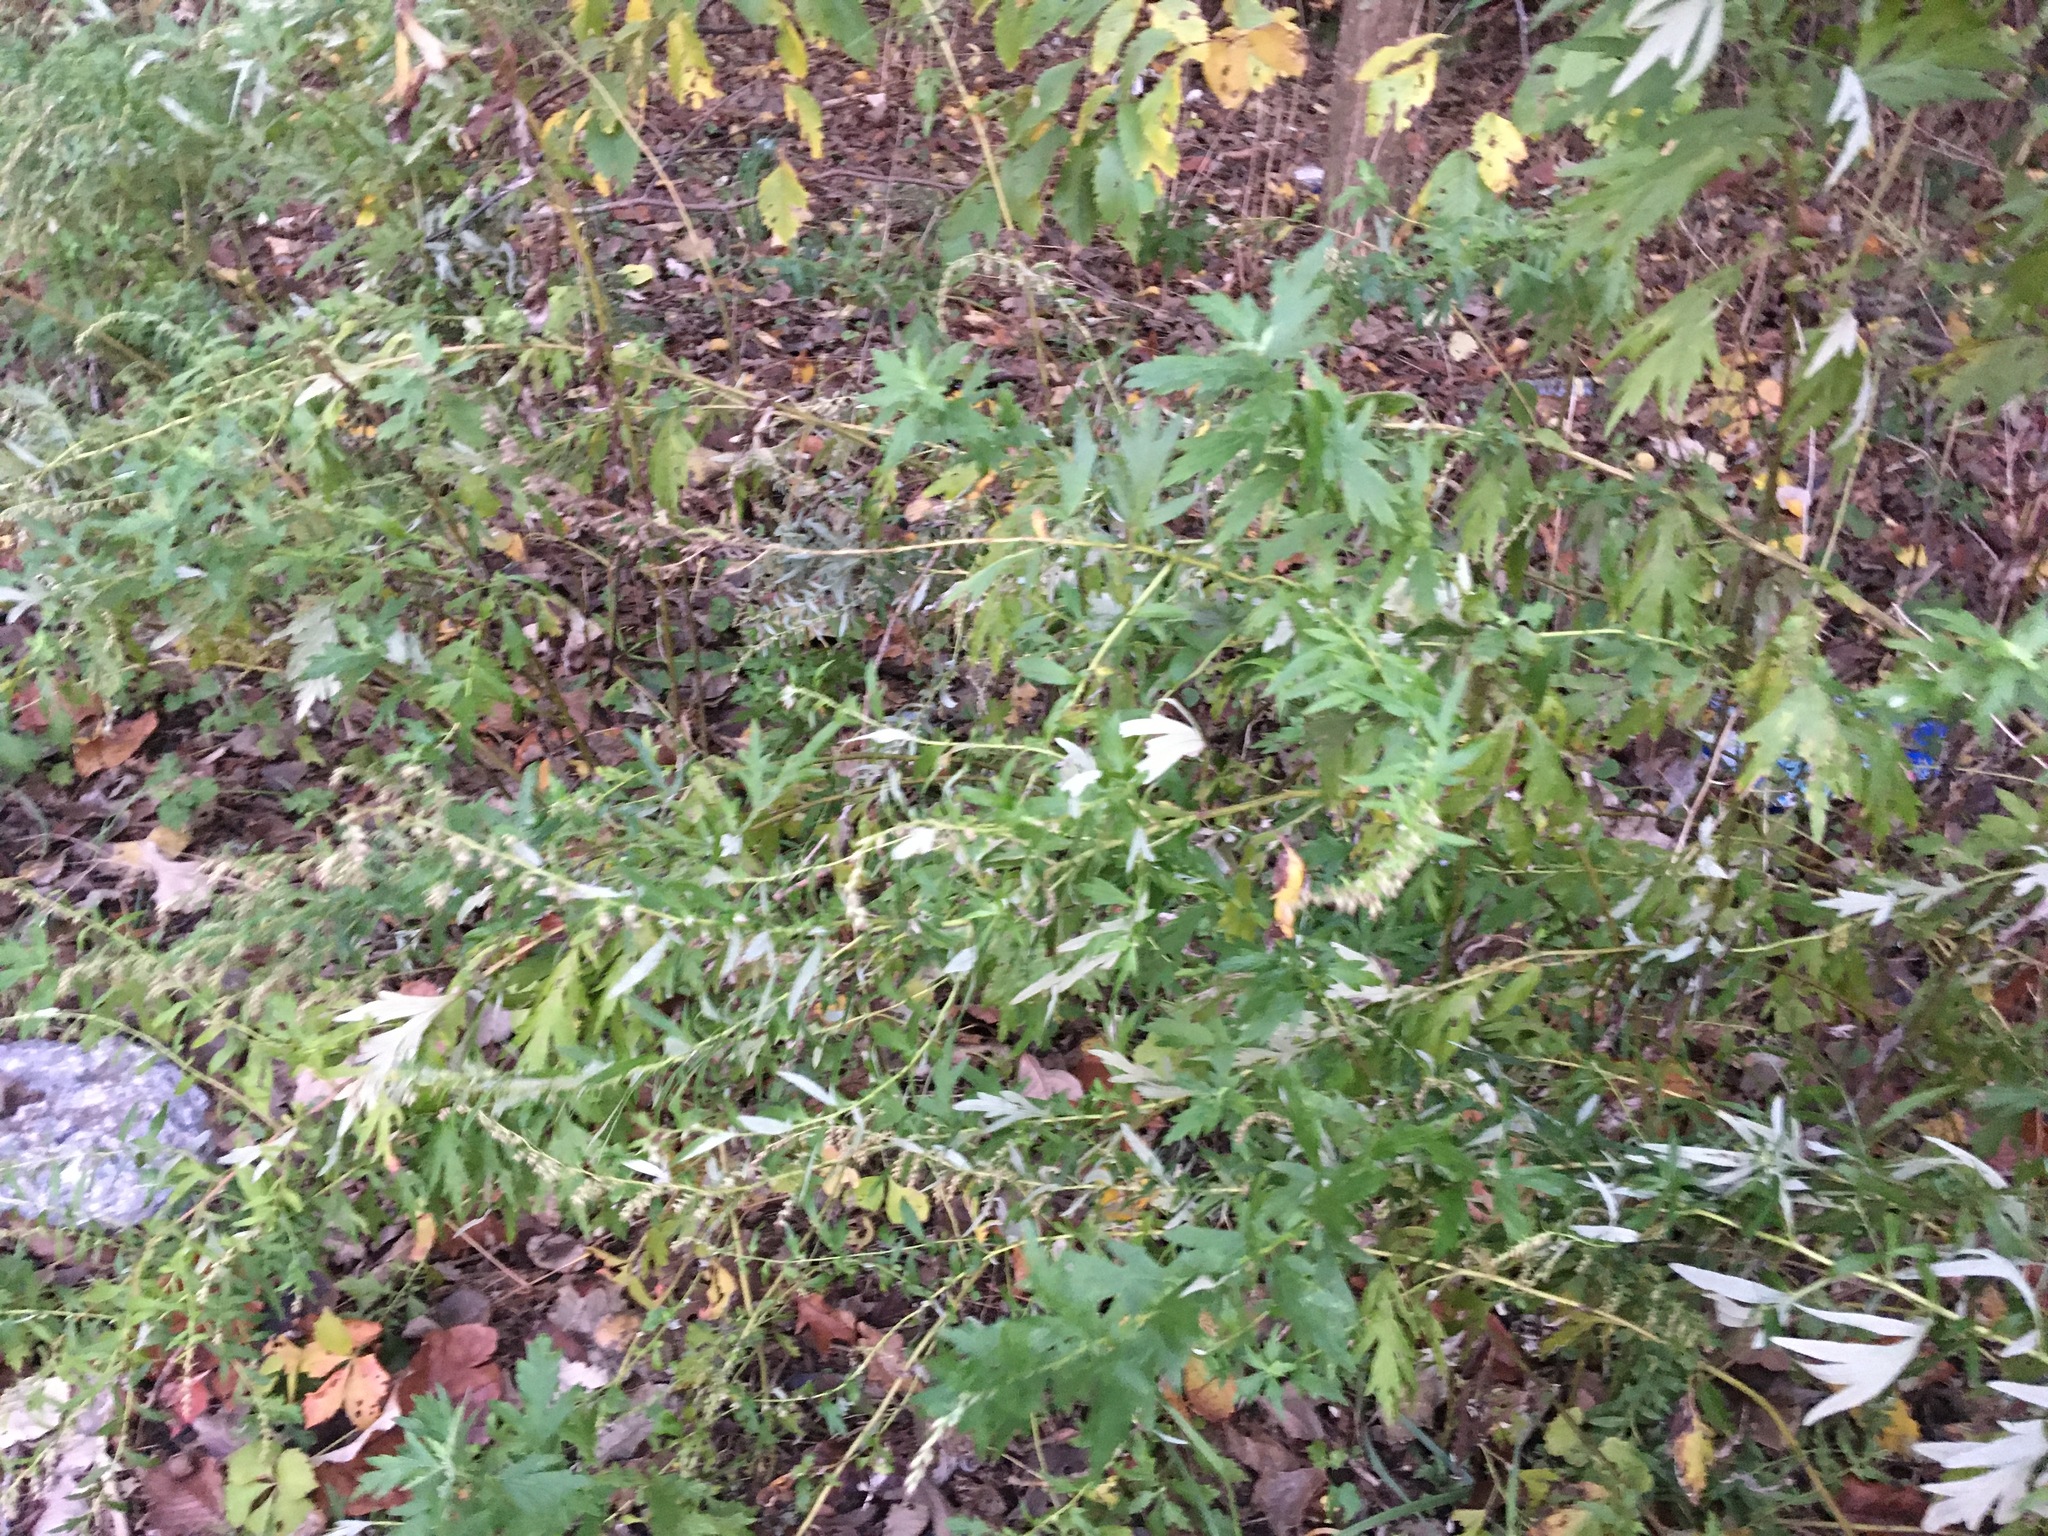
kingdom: Plantae
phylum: Tracheophyta
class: Magnoliopsida
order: Asterales
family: Asteraceae
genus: Artemisia
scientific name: Artemisia vulgaris
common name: Mugwort
